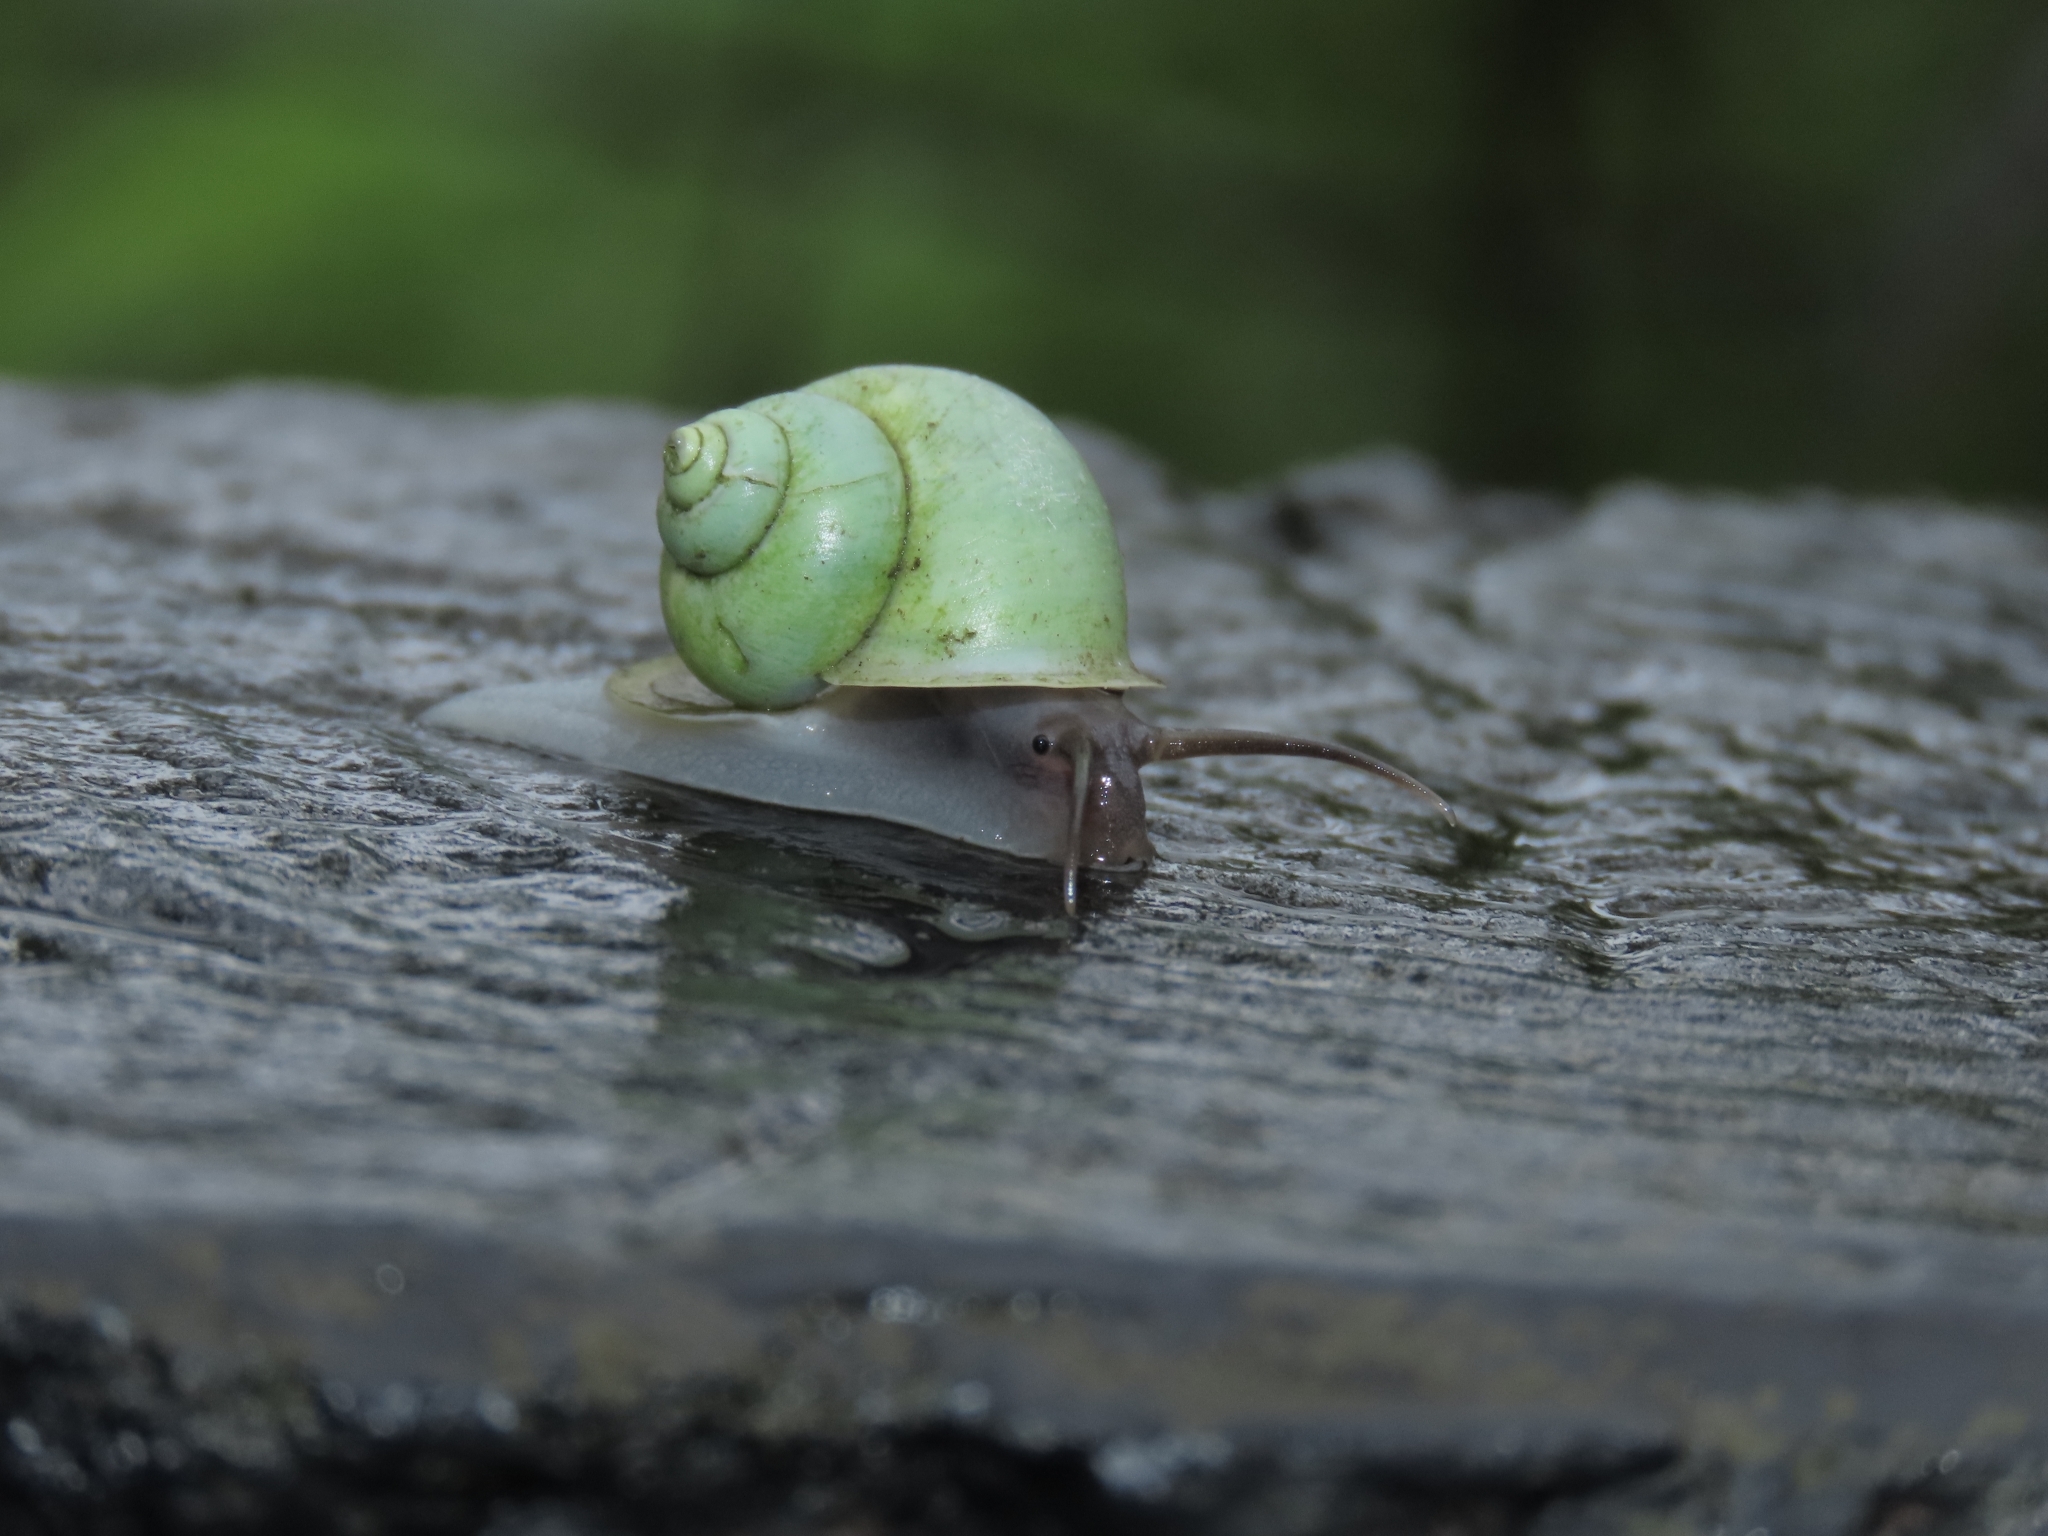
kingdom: Animalia
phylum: Mollusca
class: Gastropoda
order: Architaenioglossa
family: Cyclophoridae
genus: Leptopoma
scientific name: Leptopoma nitidum
